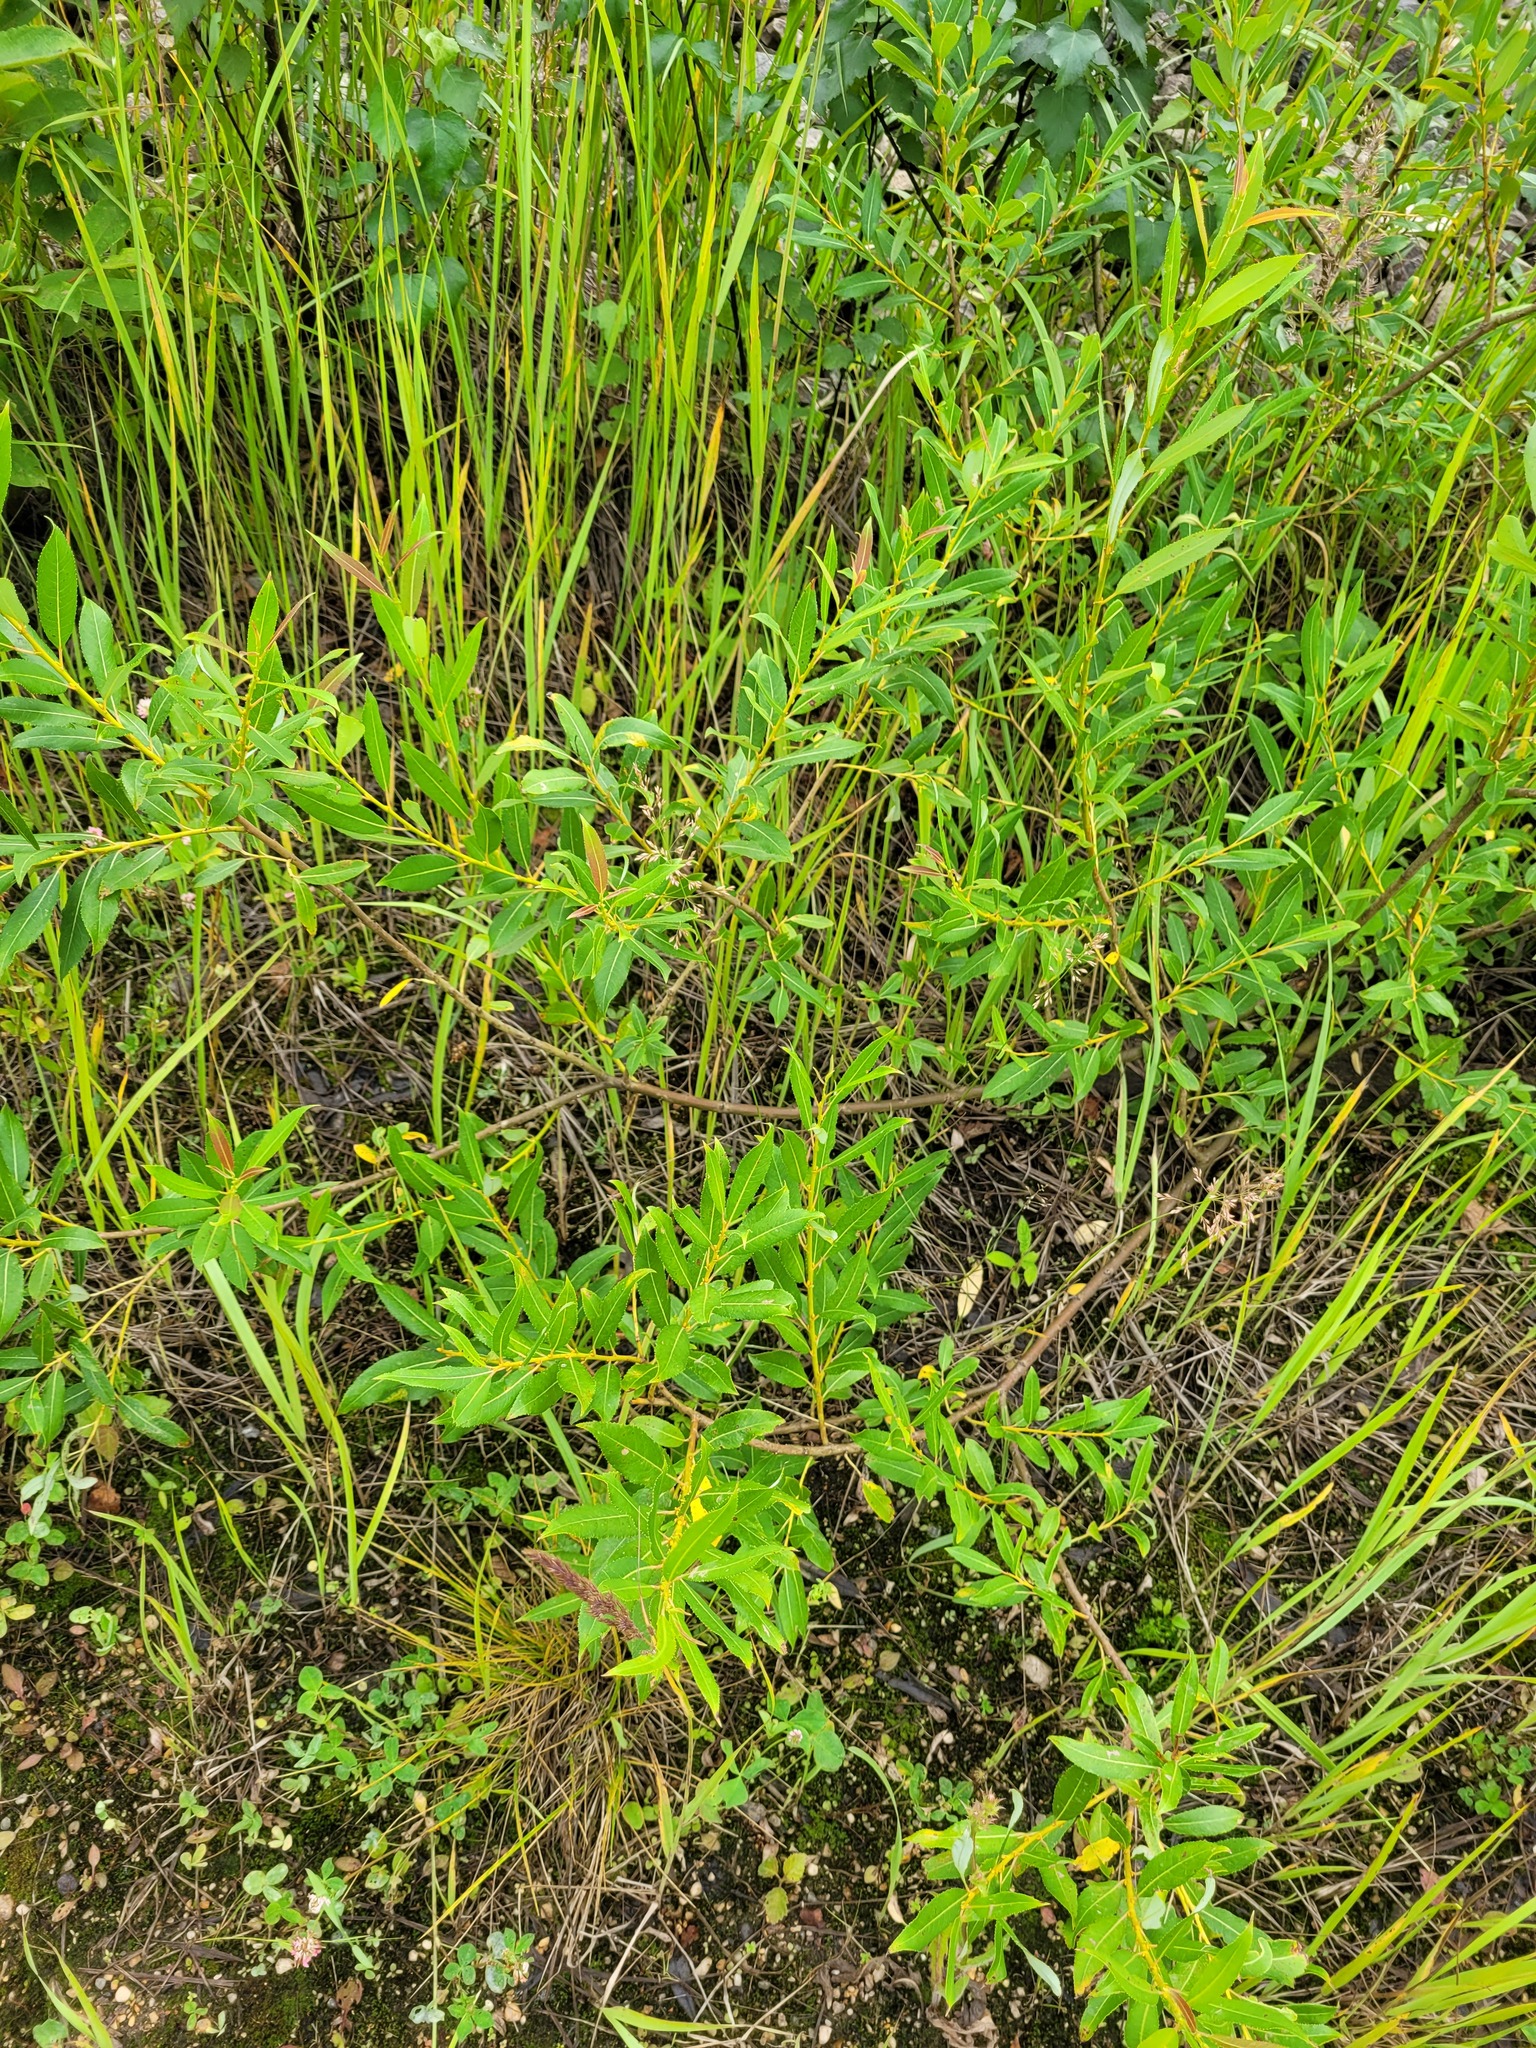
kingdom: Plantae
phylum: Tracheophyta
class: Magnoliopsida
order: Malpighiales
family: Salicaceae
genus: Salix
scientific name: Salix triandra
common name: Almond willow
